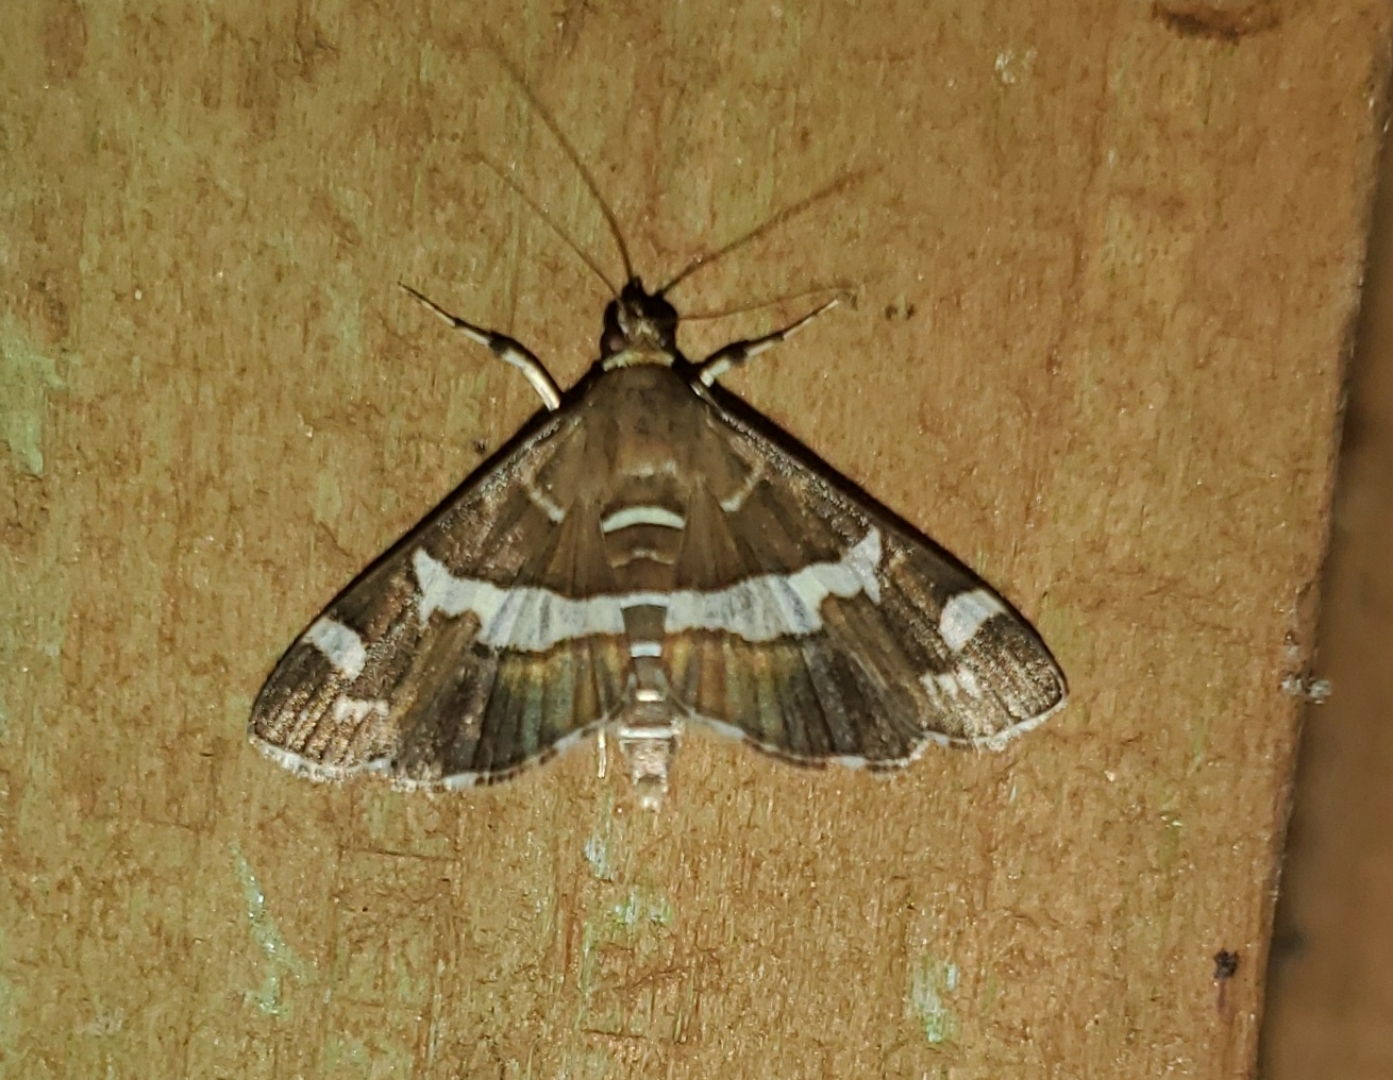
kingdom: Animalia
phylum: Arthropoda
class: Insecta
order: Lepidoptera
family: Crambidae
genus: Spoladea
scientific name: Spoladea recurvalis
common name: Beet webworm moth
